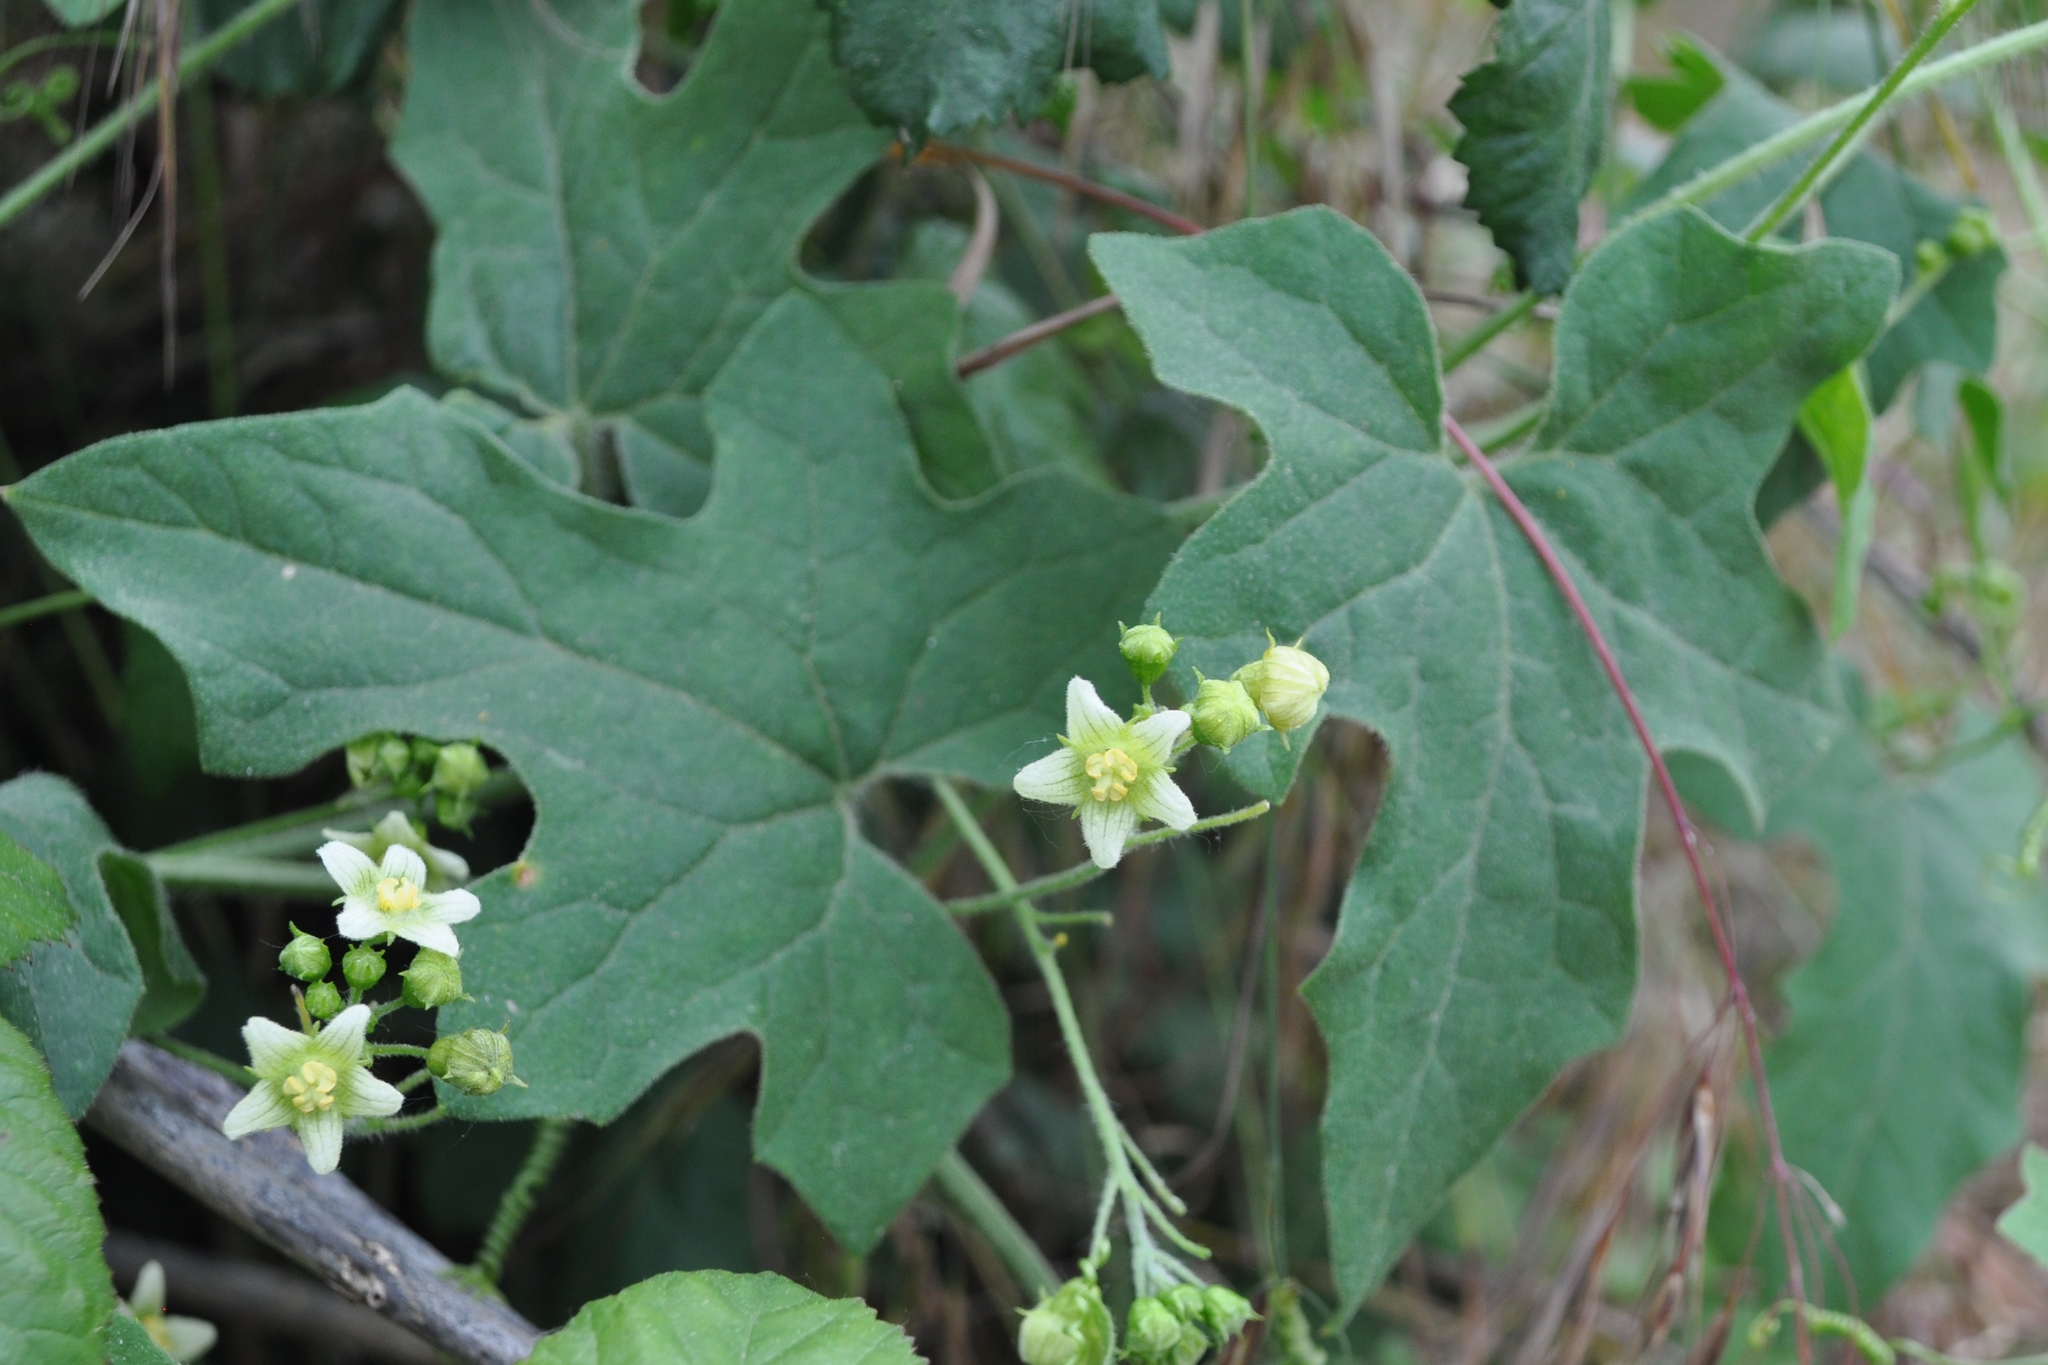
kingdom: Plantae
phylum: Tracheophyta
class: Magnoliopsida
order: Cucurbitales
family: Cucurbitaceae
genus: Bryonia
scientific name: Bryonia dioica
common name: White bryony
